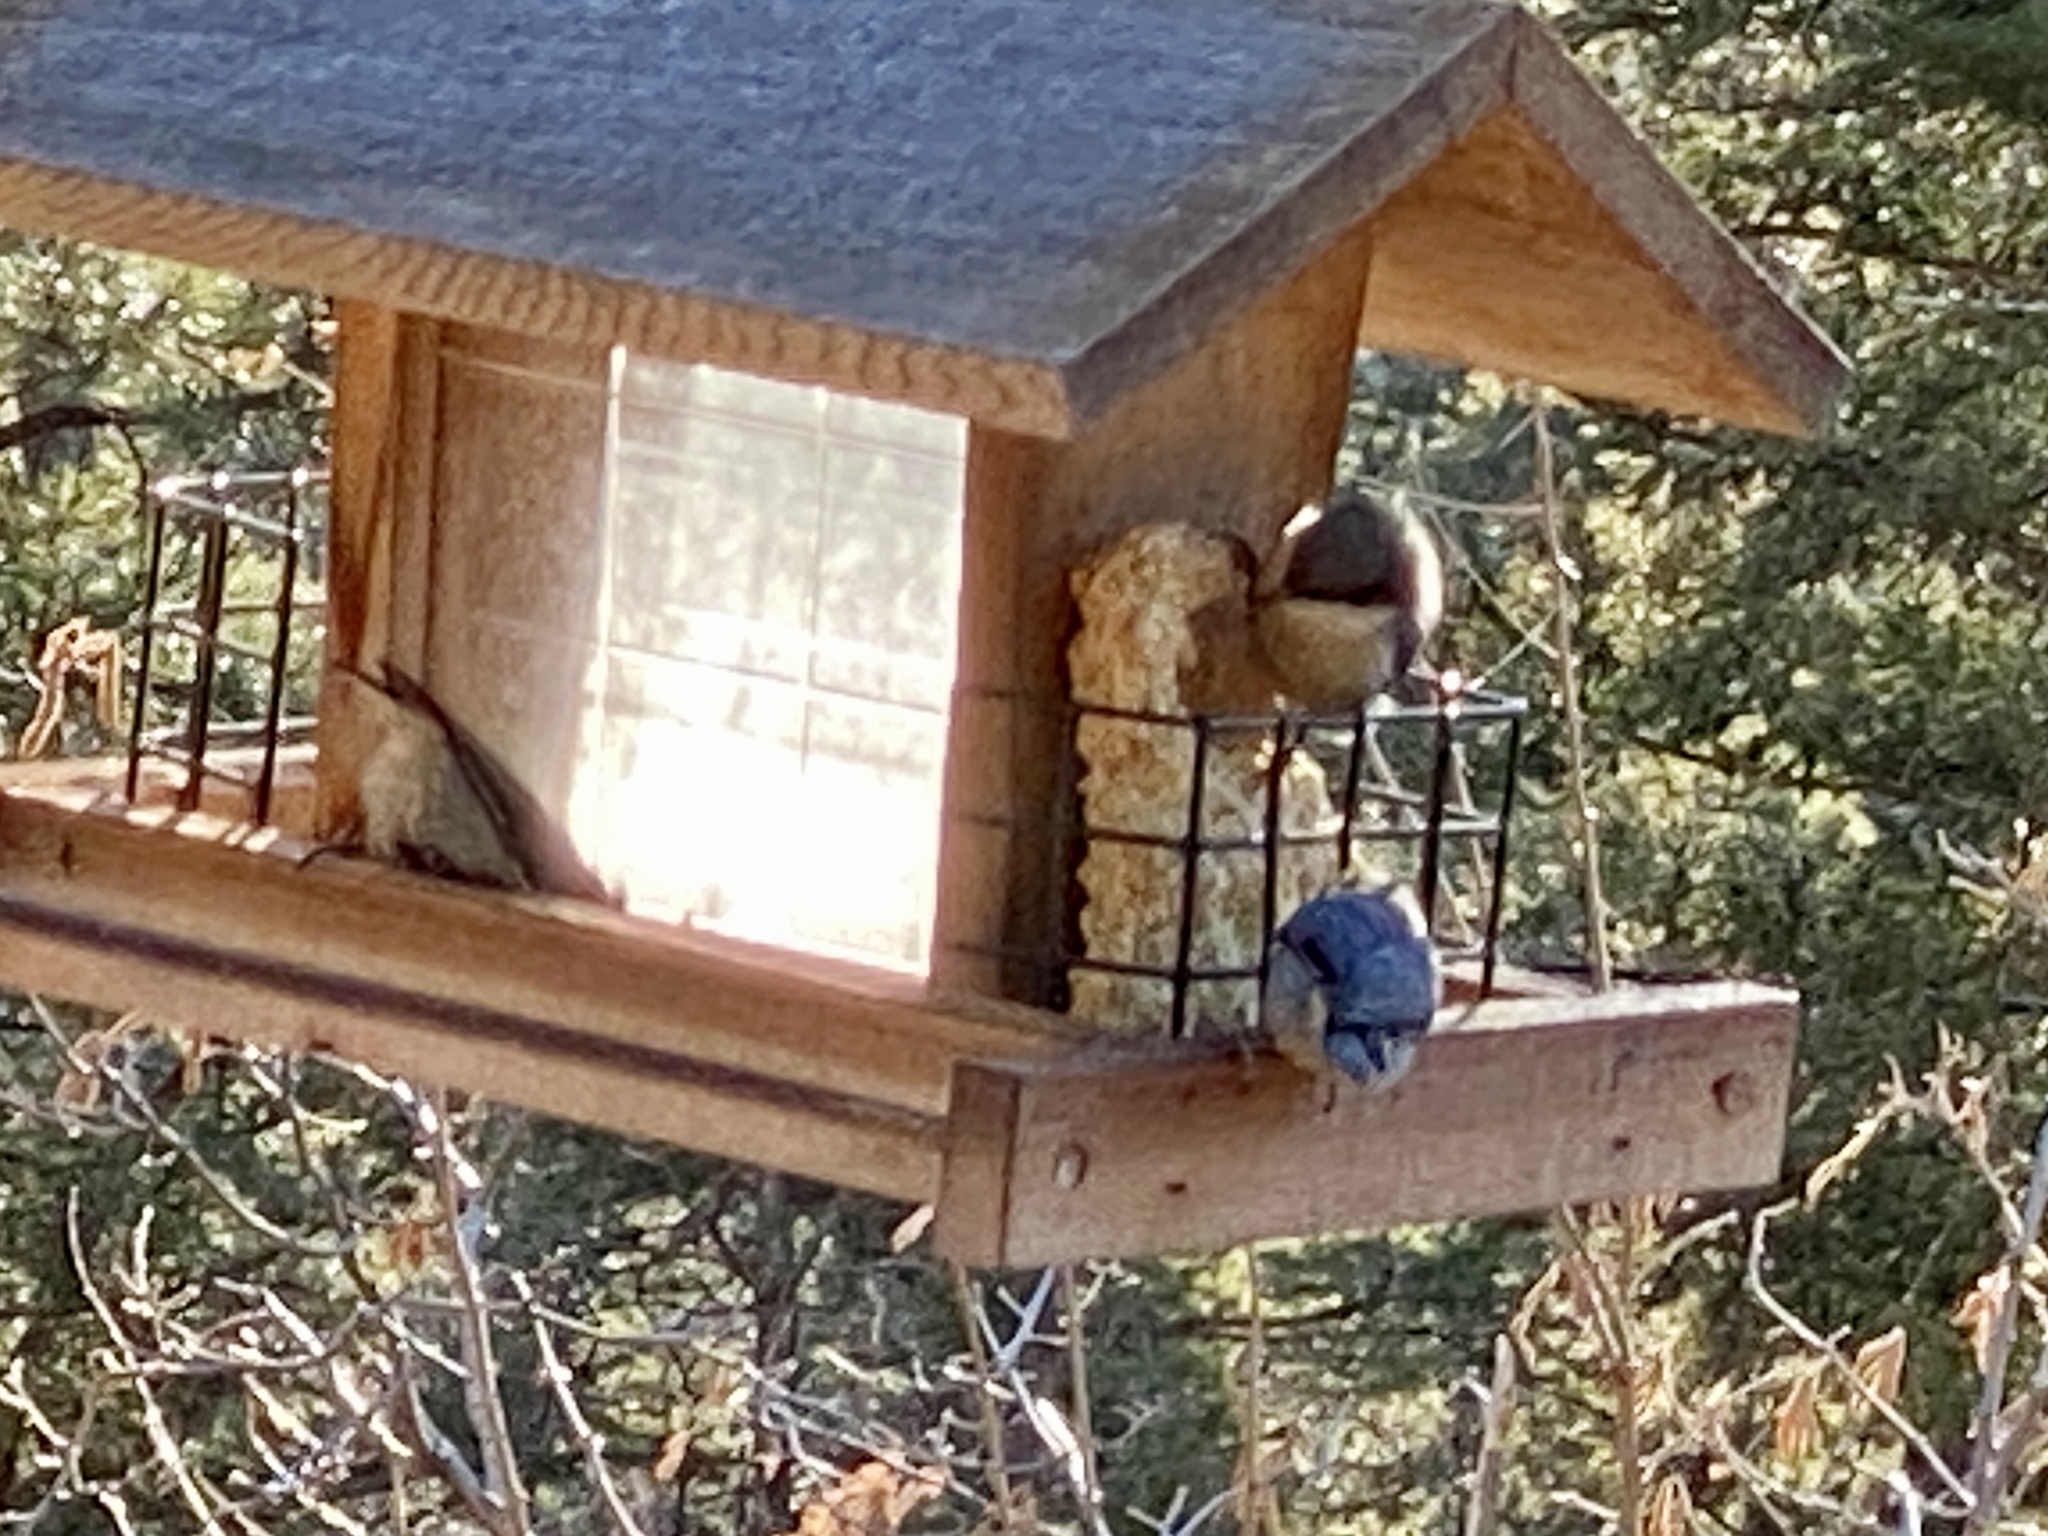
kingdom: Animalia
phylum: Chordata
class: Aves
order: Passeriformes
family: Sittidae
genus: Sitta
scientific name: Sitta pygmaea
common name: Pygmy nuthatch
